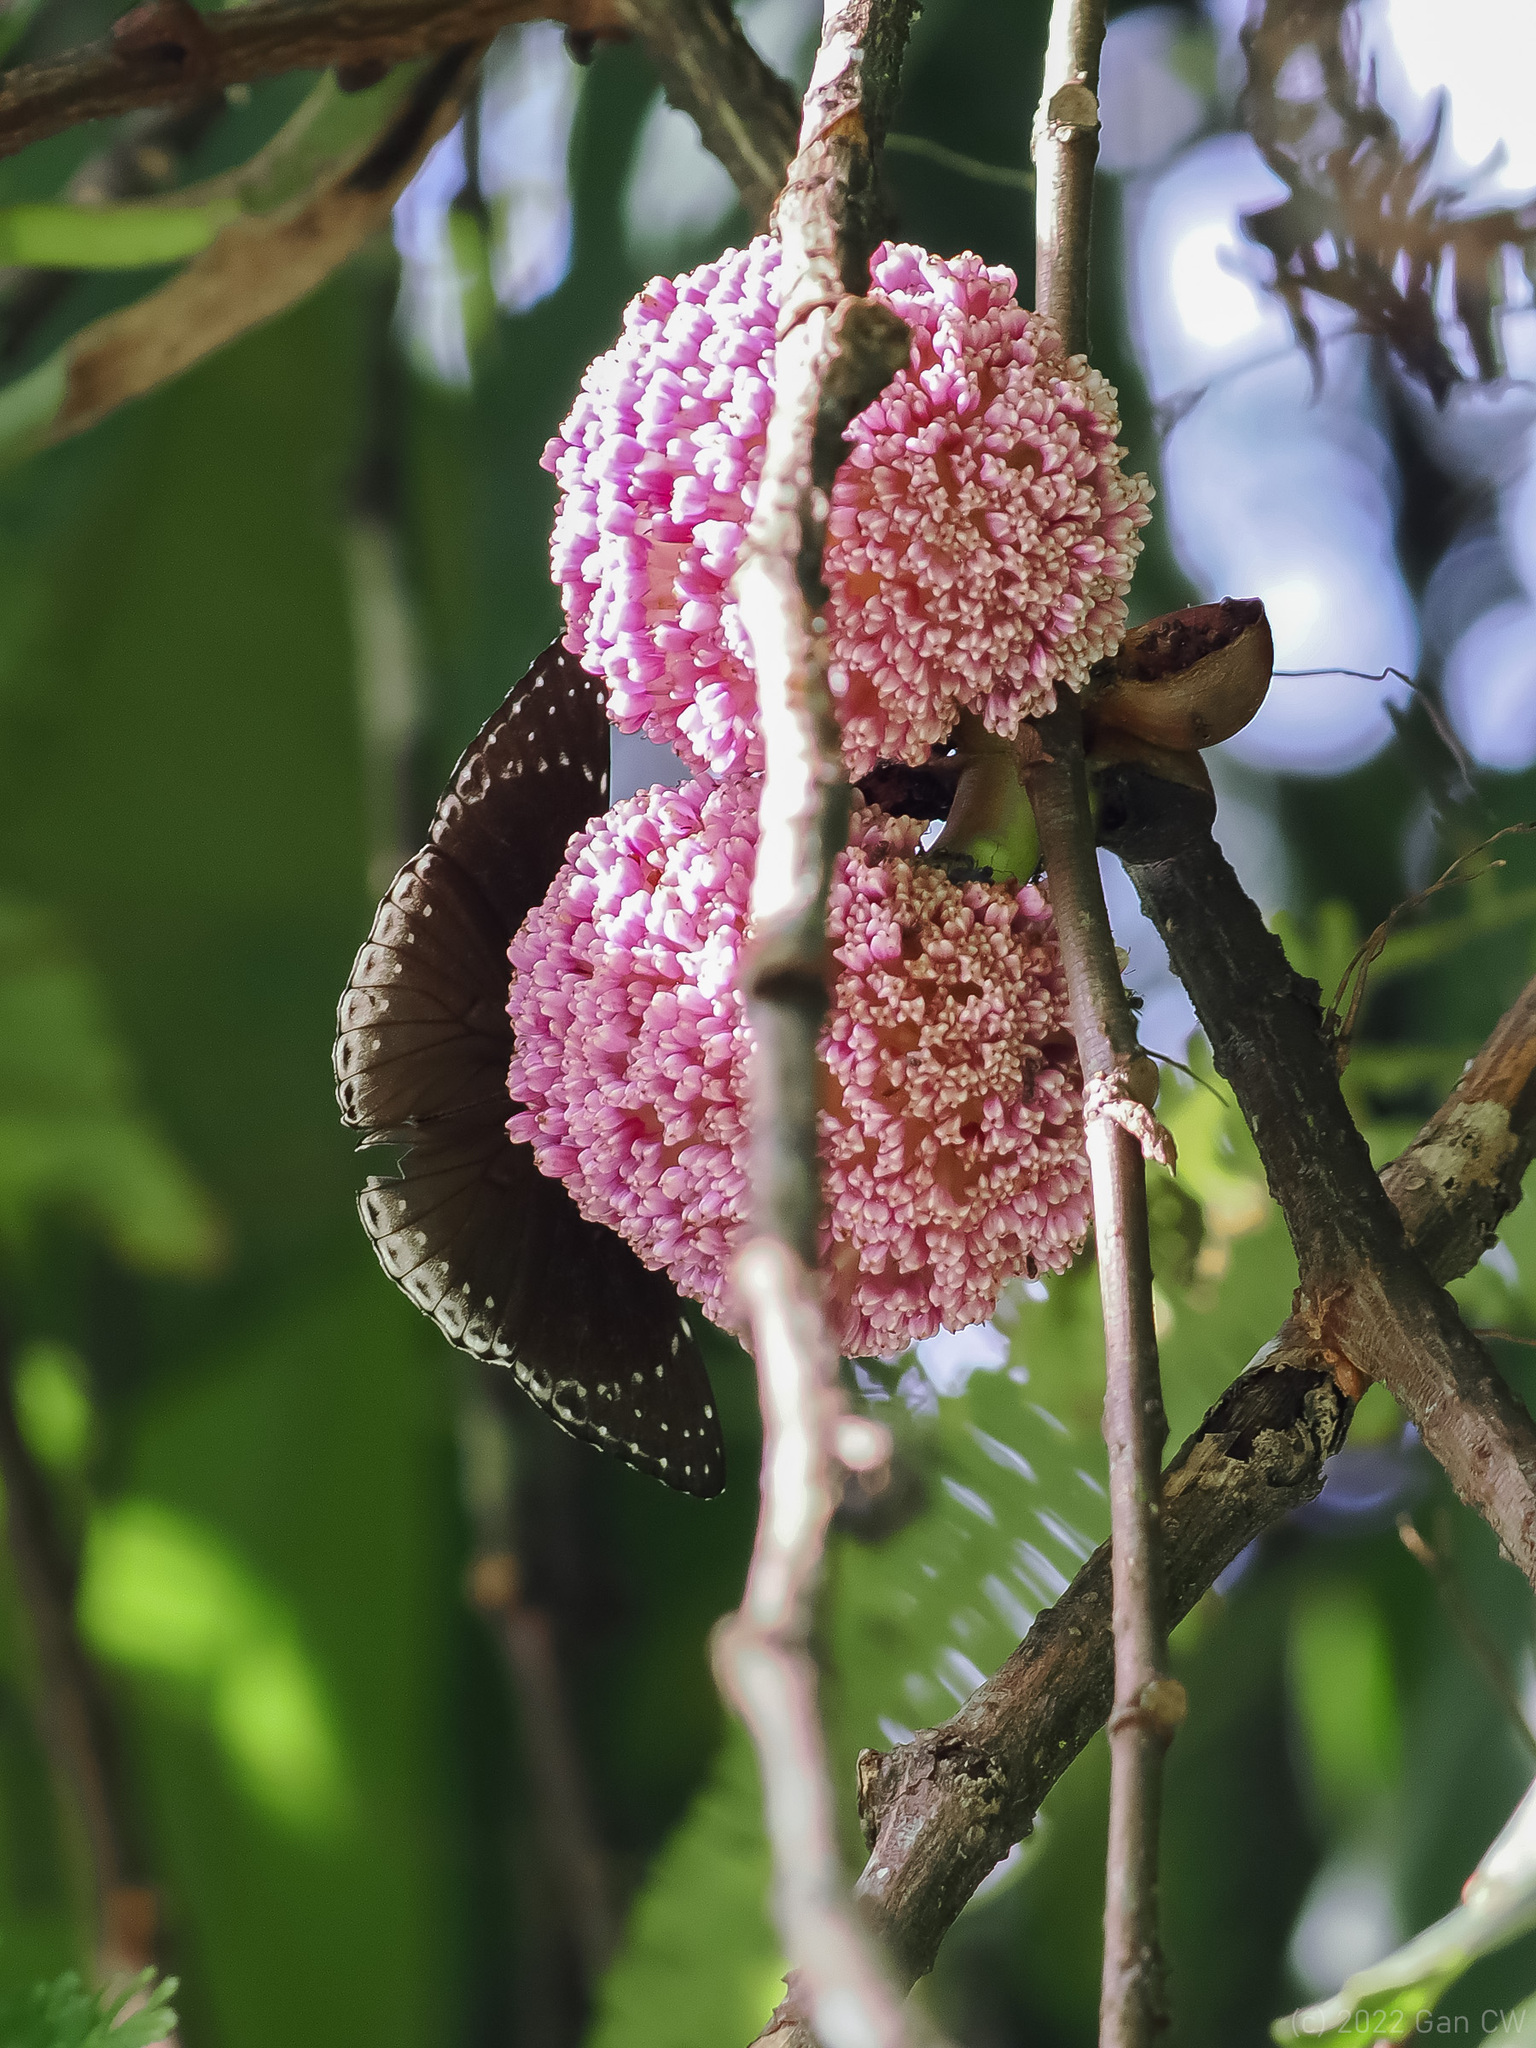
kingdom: Animalia
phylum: Arthropoda
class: Insecta
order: Lepidoptera
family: Nymphalidae
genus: Stibochiona
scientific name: Stibochiona coresia
